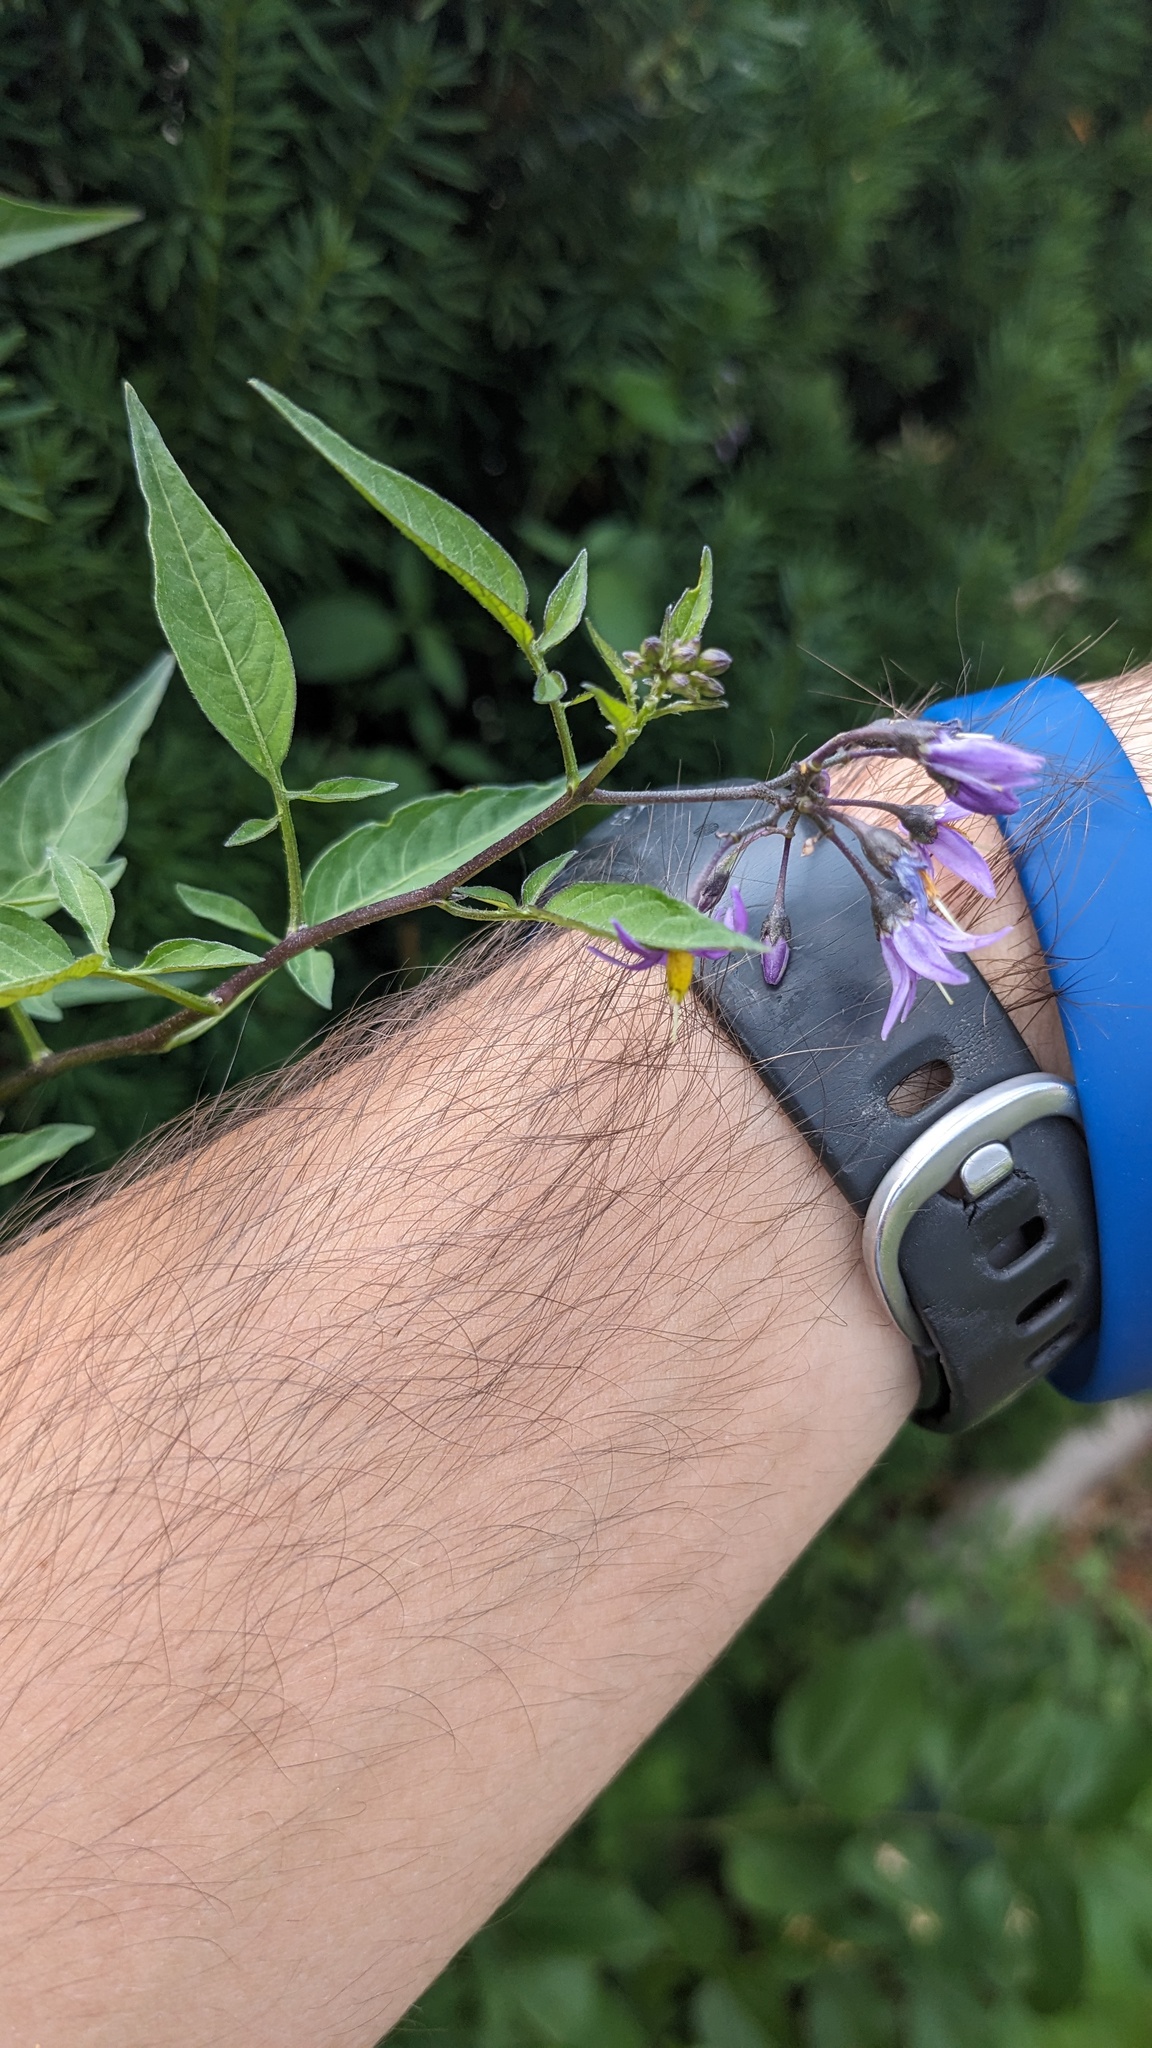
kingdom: Plantae
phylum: Tracheophyta
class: Magnoliopsida
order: Solanales
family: Solanaceae
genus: Solanum
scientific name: Solanum dulcamara
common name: Climbing nightshade
